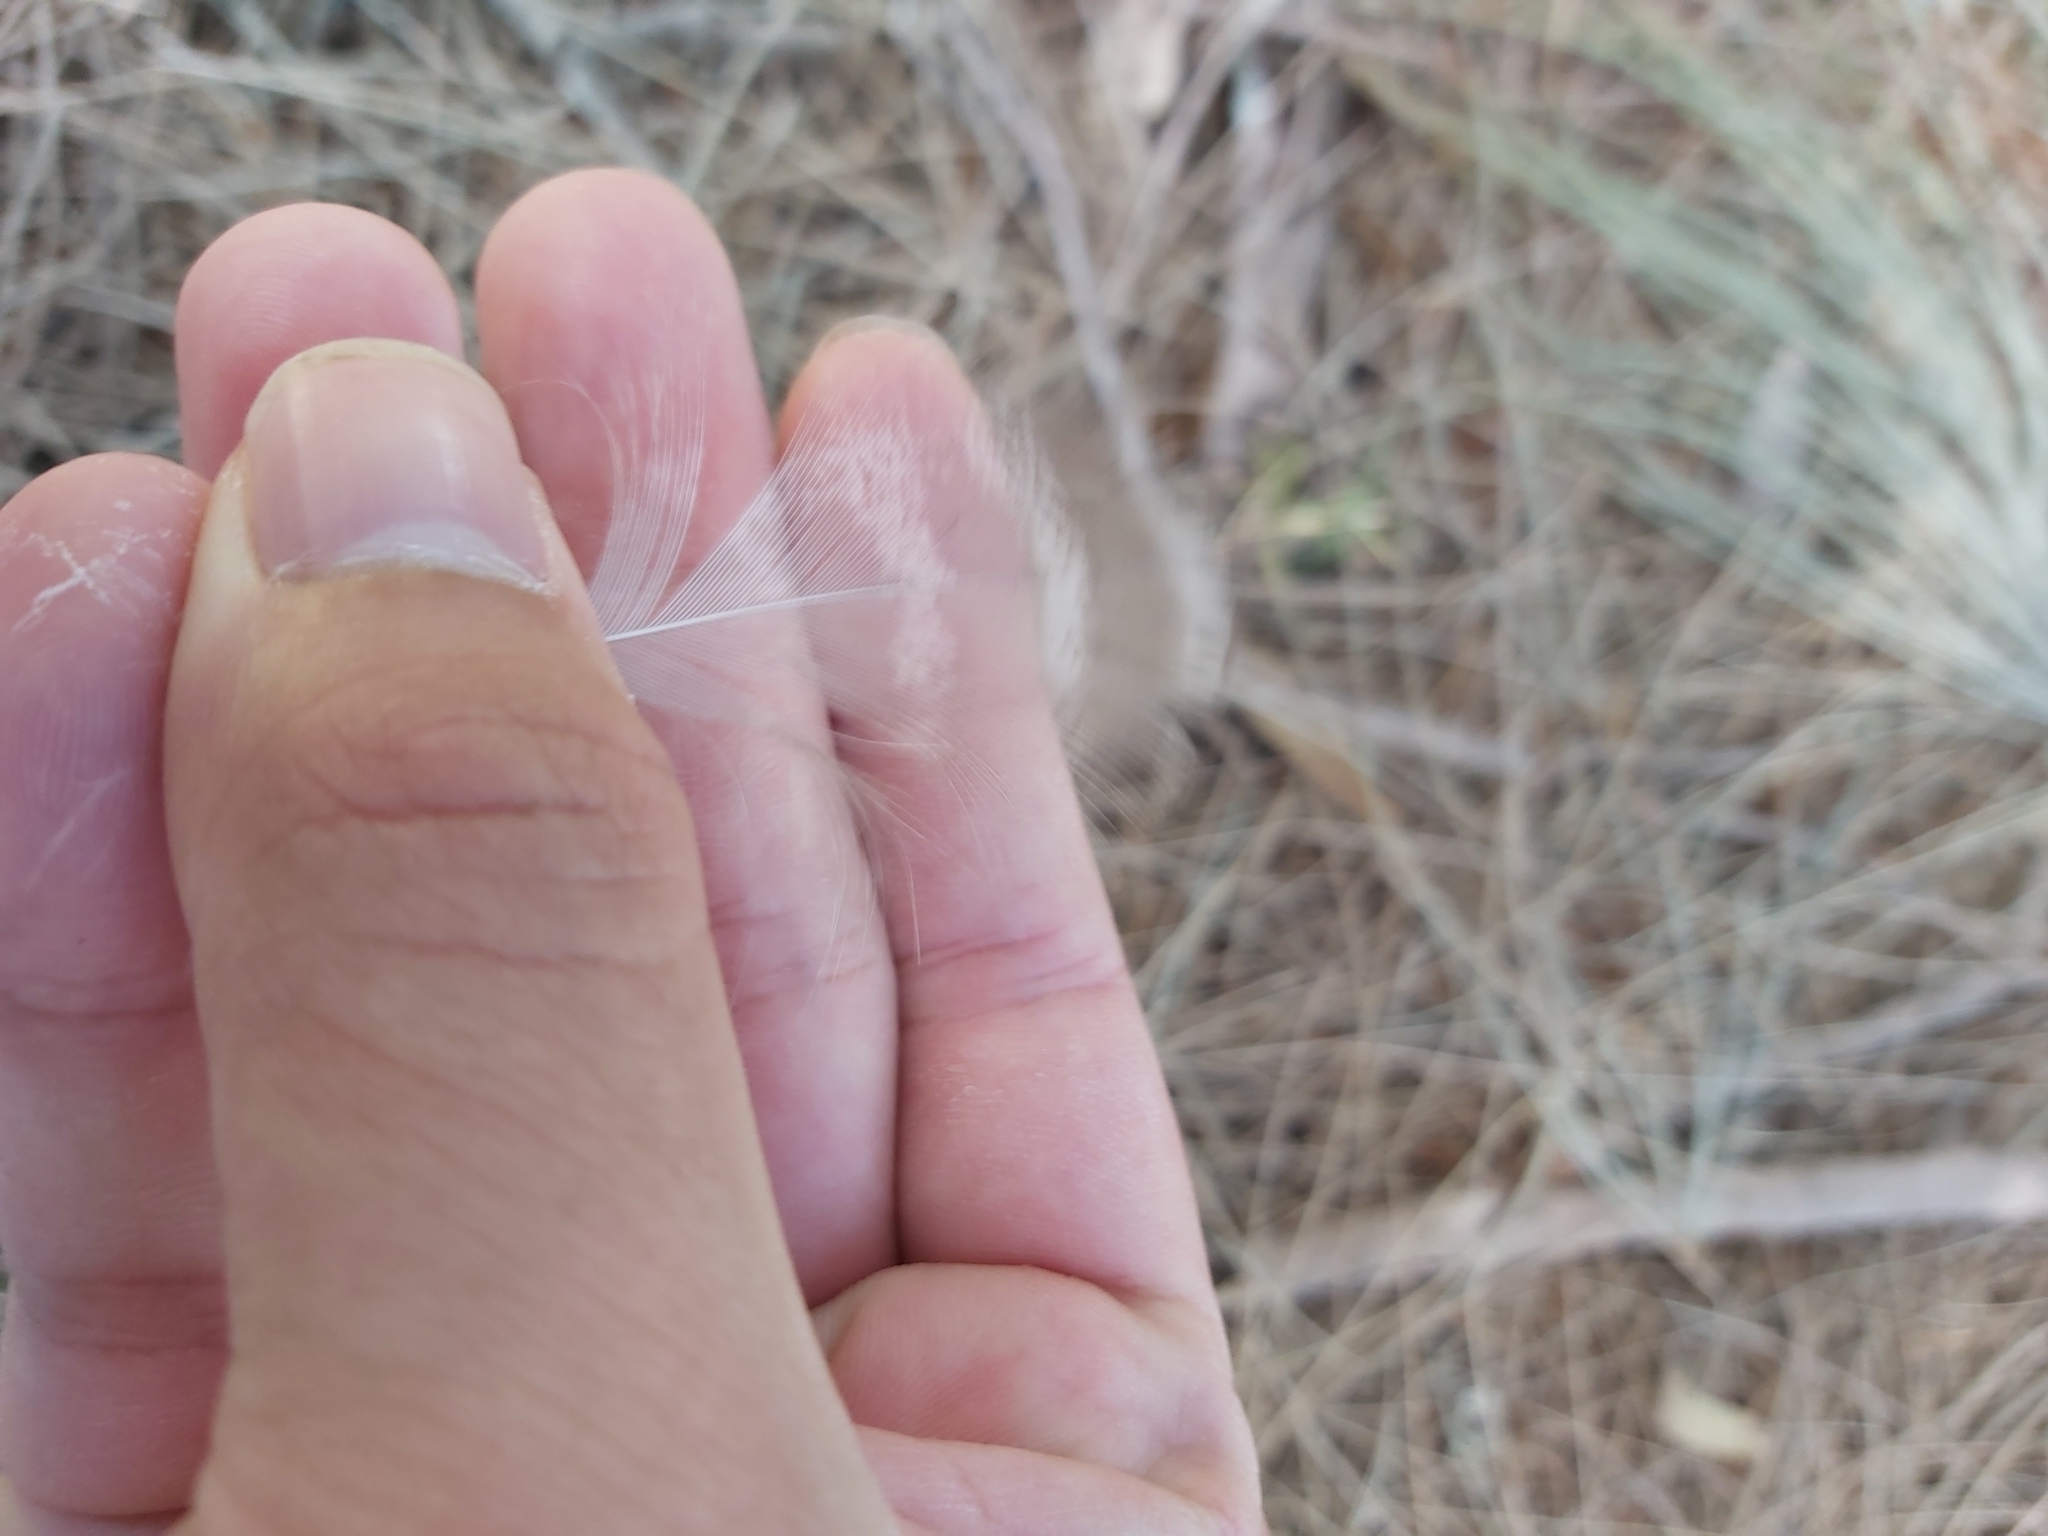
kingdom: Animalia
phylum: Chordata
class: Aves
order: Anseriformes
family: Anatidae
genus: Chenonetta
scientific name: Chenonetta jubata
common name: Maned duck
